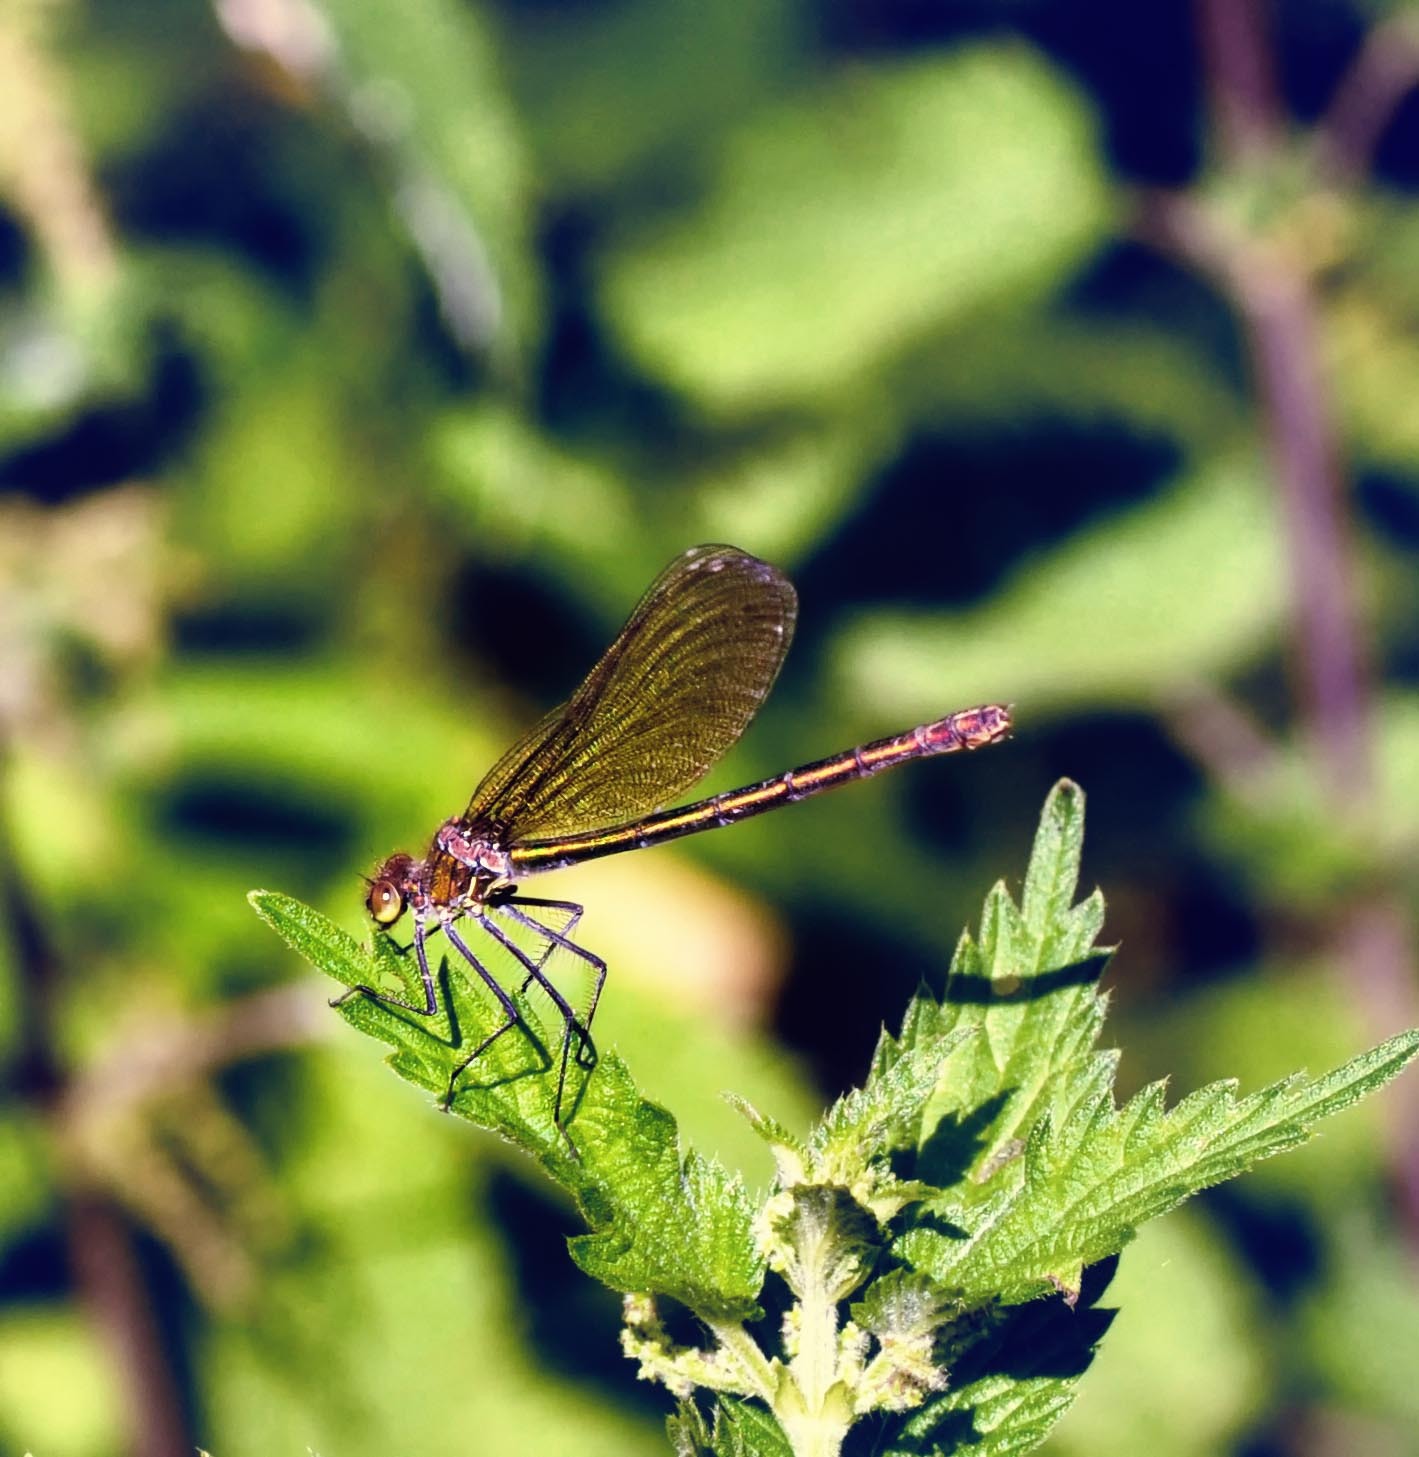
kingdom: Animalia
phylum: Arthropoda
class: Insecta
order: Odonata
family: Calopterygidae
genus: Calopteryx
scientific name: Calopteryx splendens
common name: Banded demoiselle
